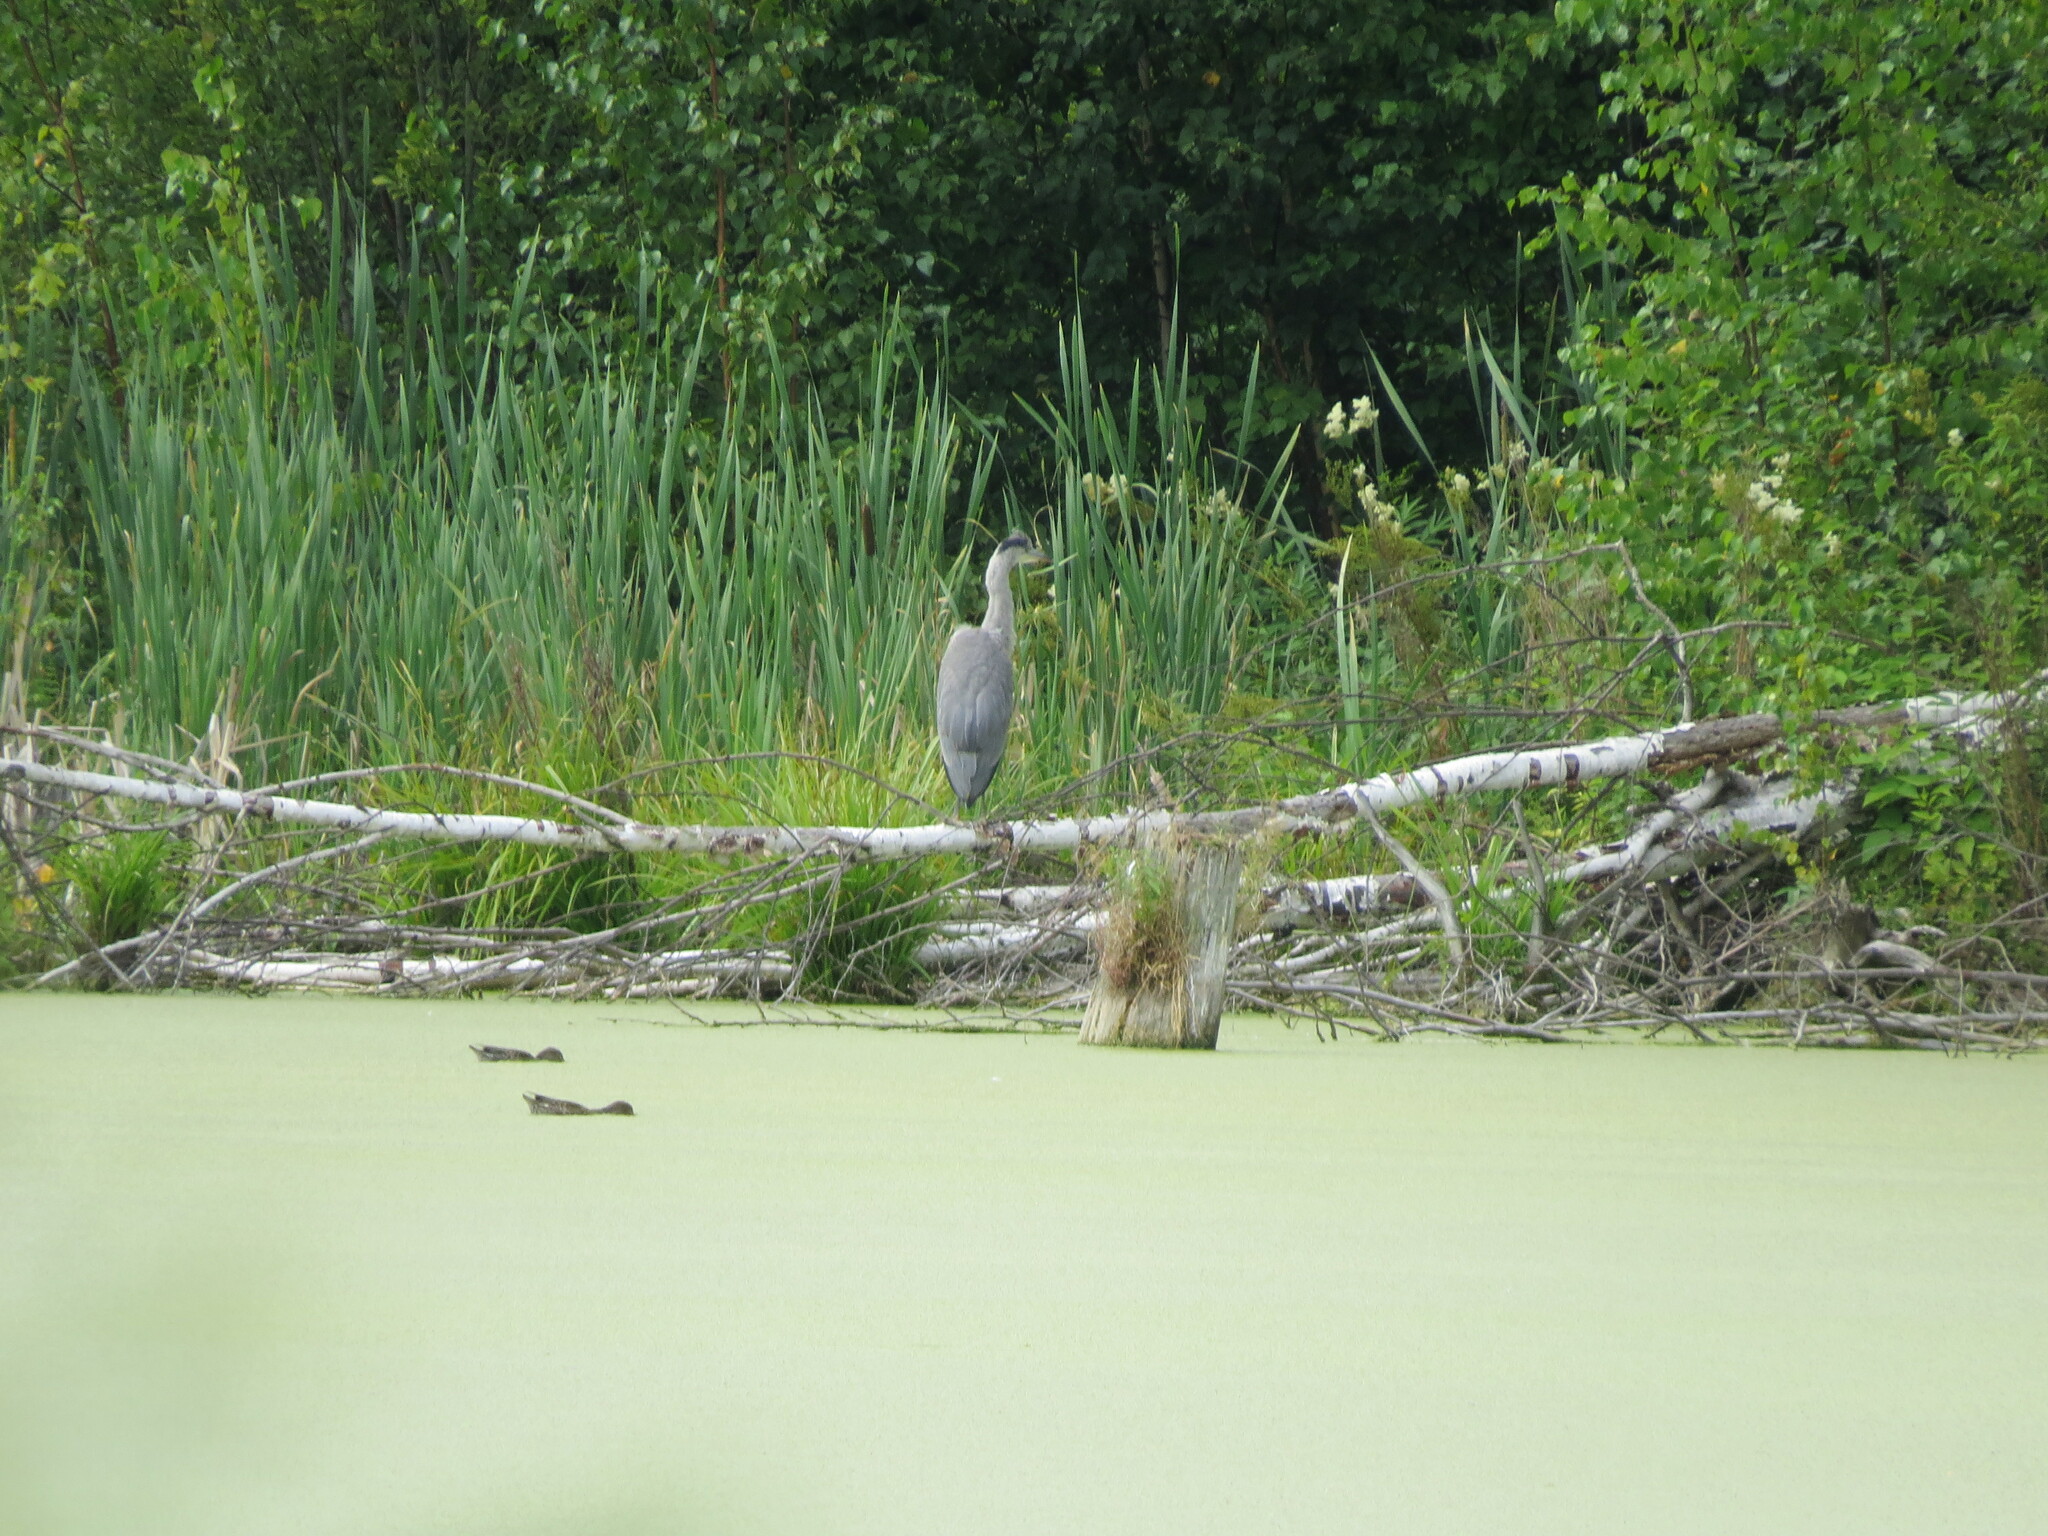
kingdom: Animalia
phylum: Chordata
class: Aves
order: Pelecaniformes
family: Ardeidae
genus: Ardea
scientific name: Ardea cinerea
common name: Grey heron
